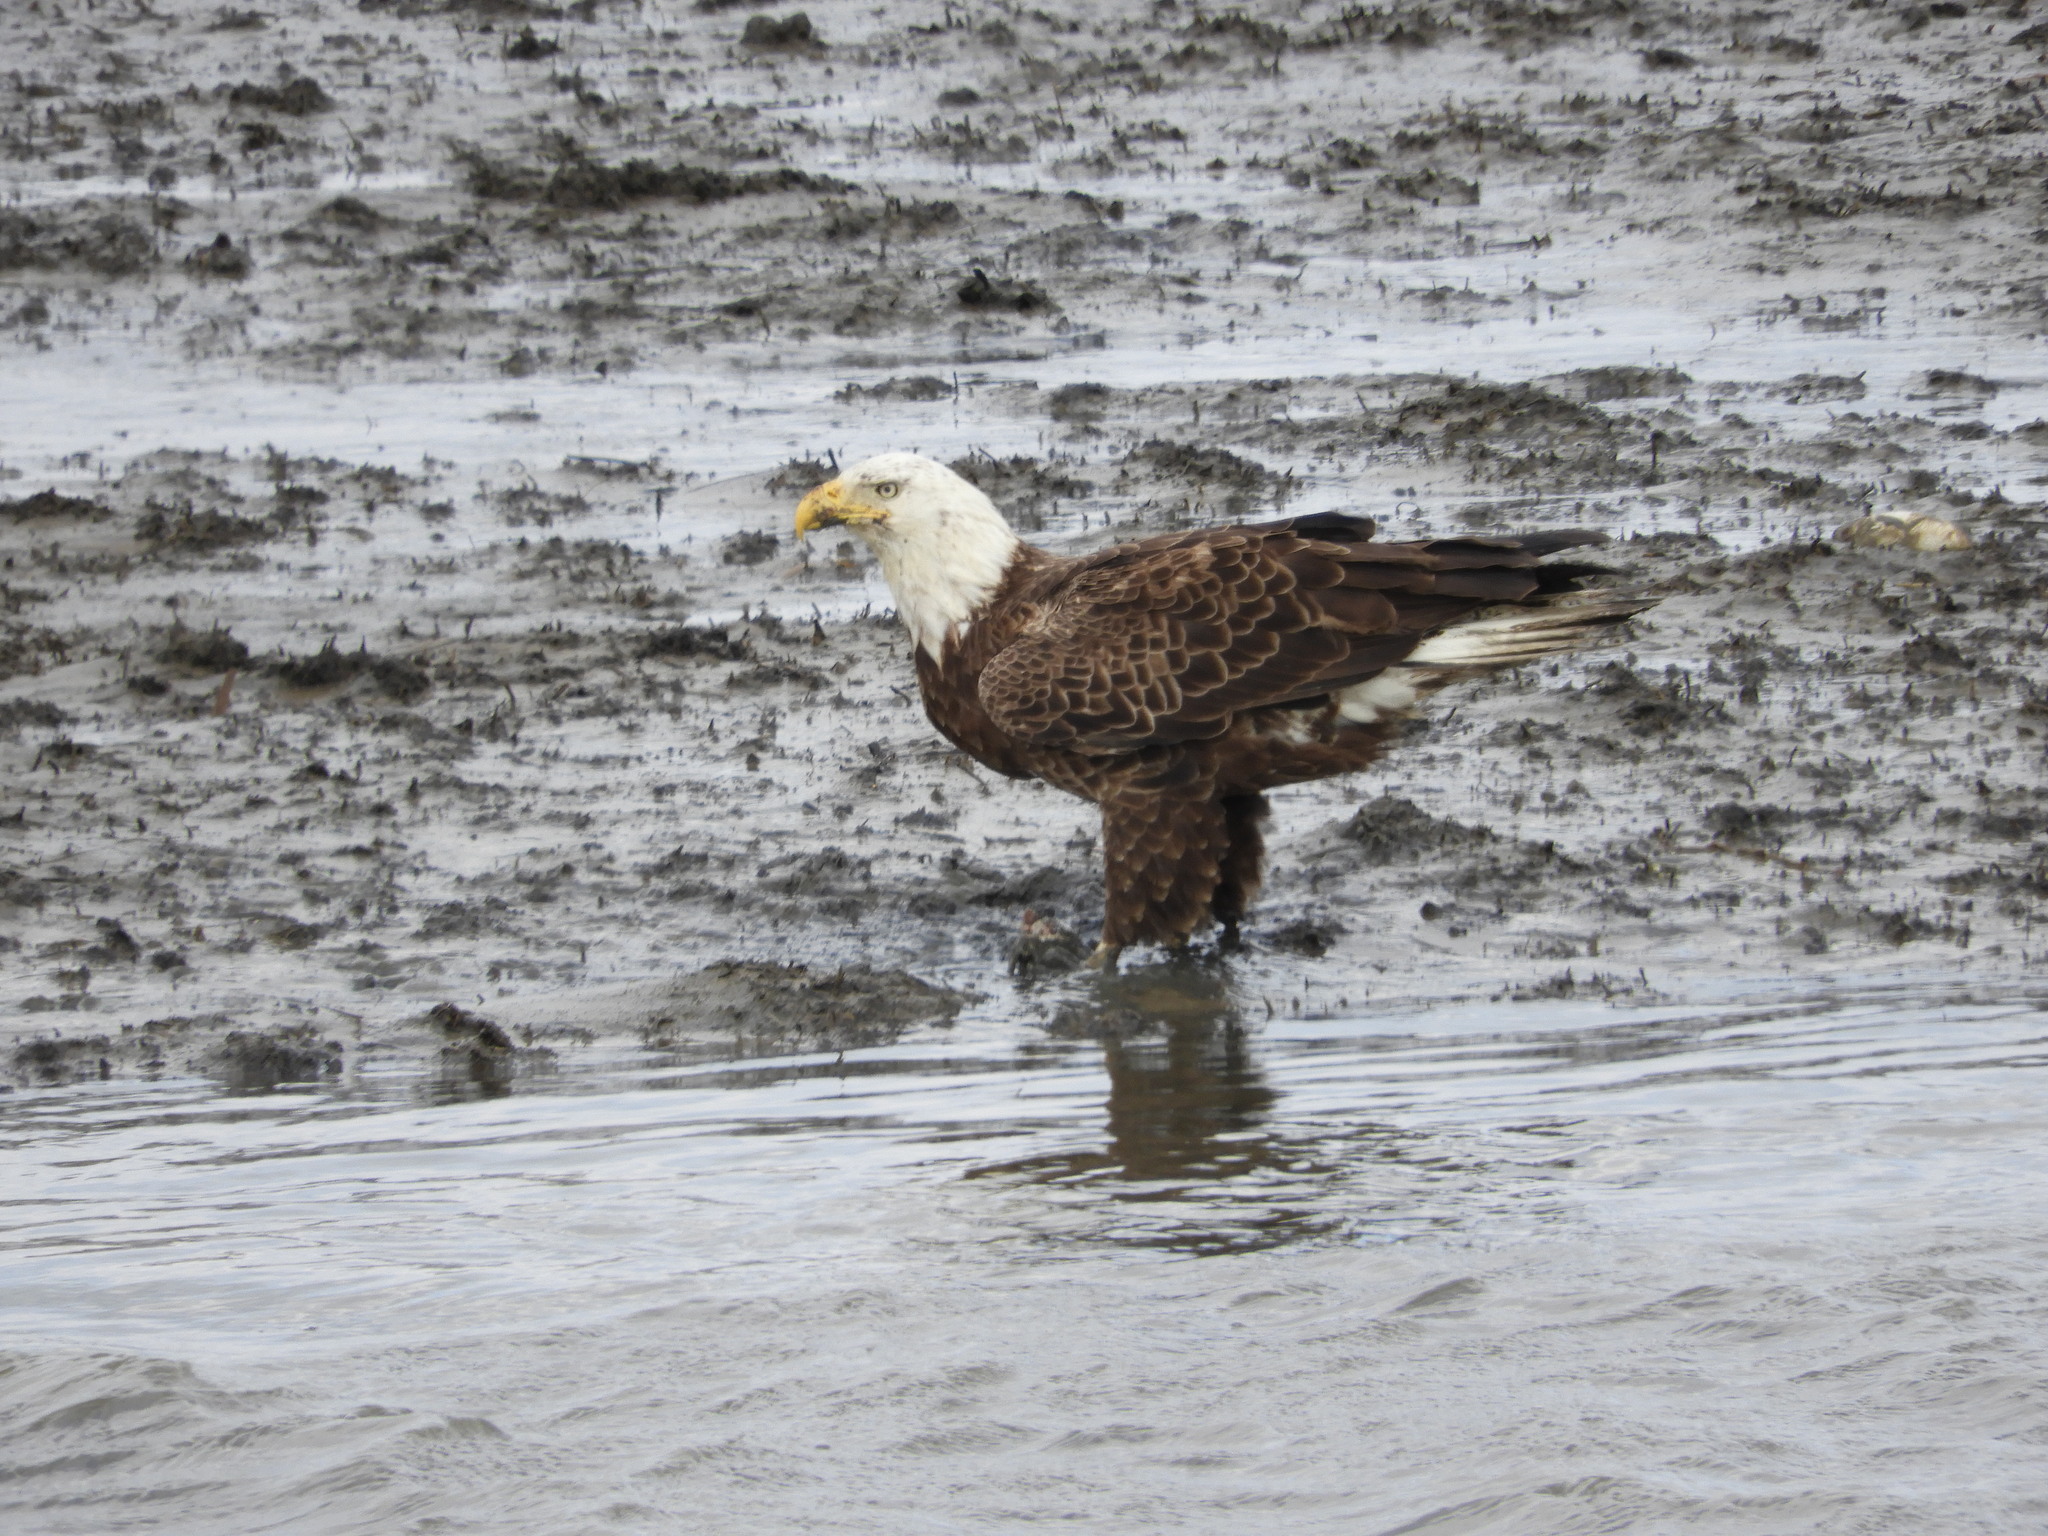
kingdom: Animalia
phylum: Chordata
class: Aves
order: Accipitriformes
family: Accipitridae
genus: Haliaeetus
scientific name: Haliaeetus leucocephalus
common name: Bald eagle
